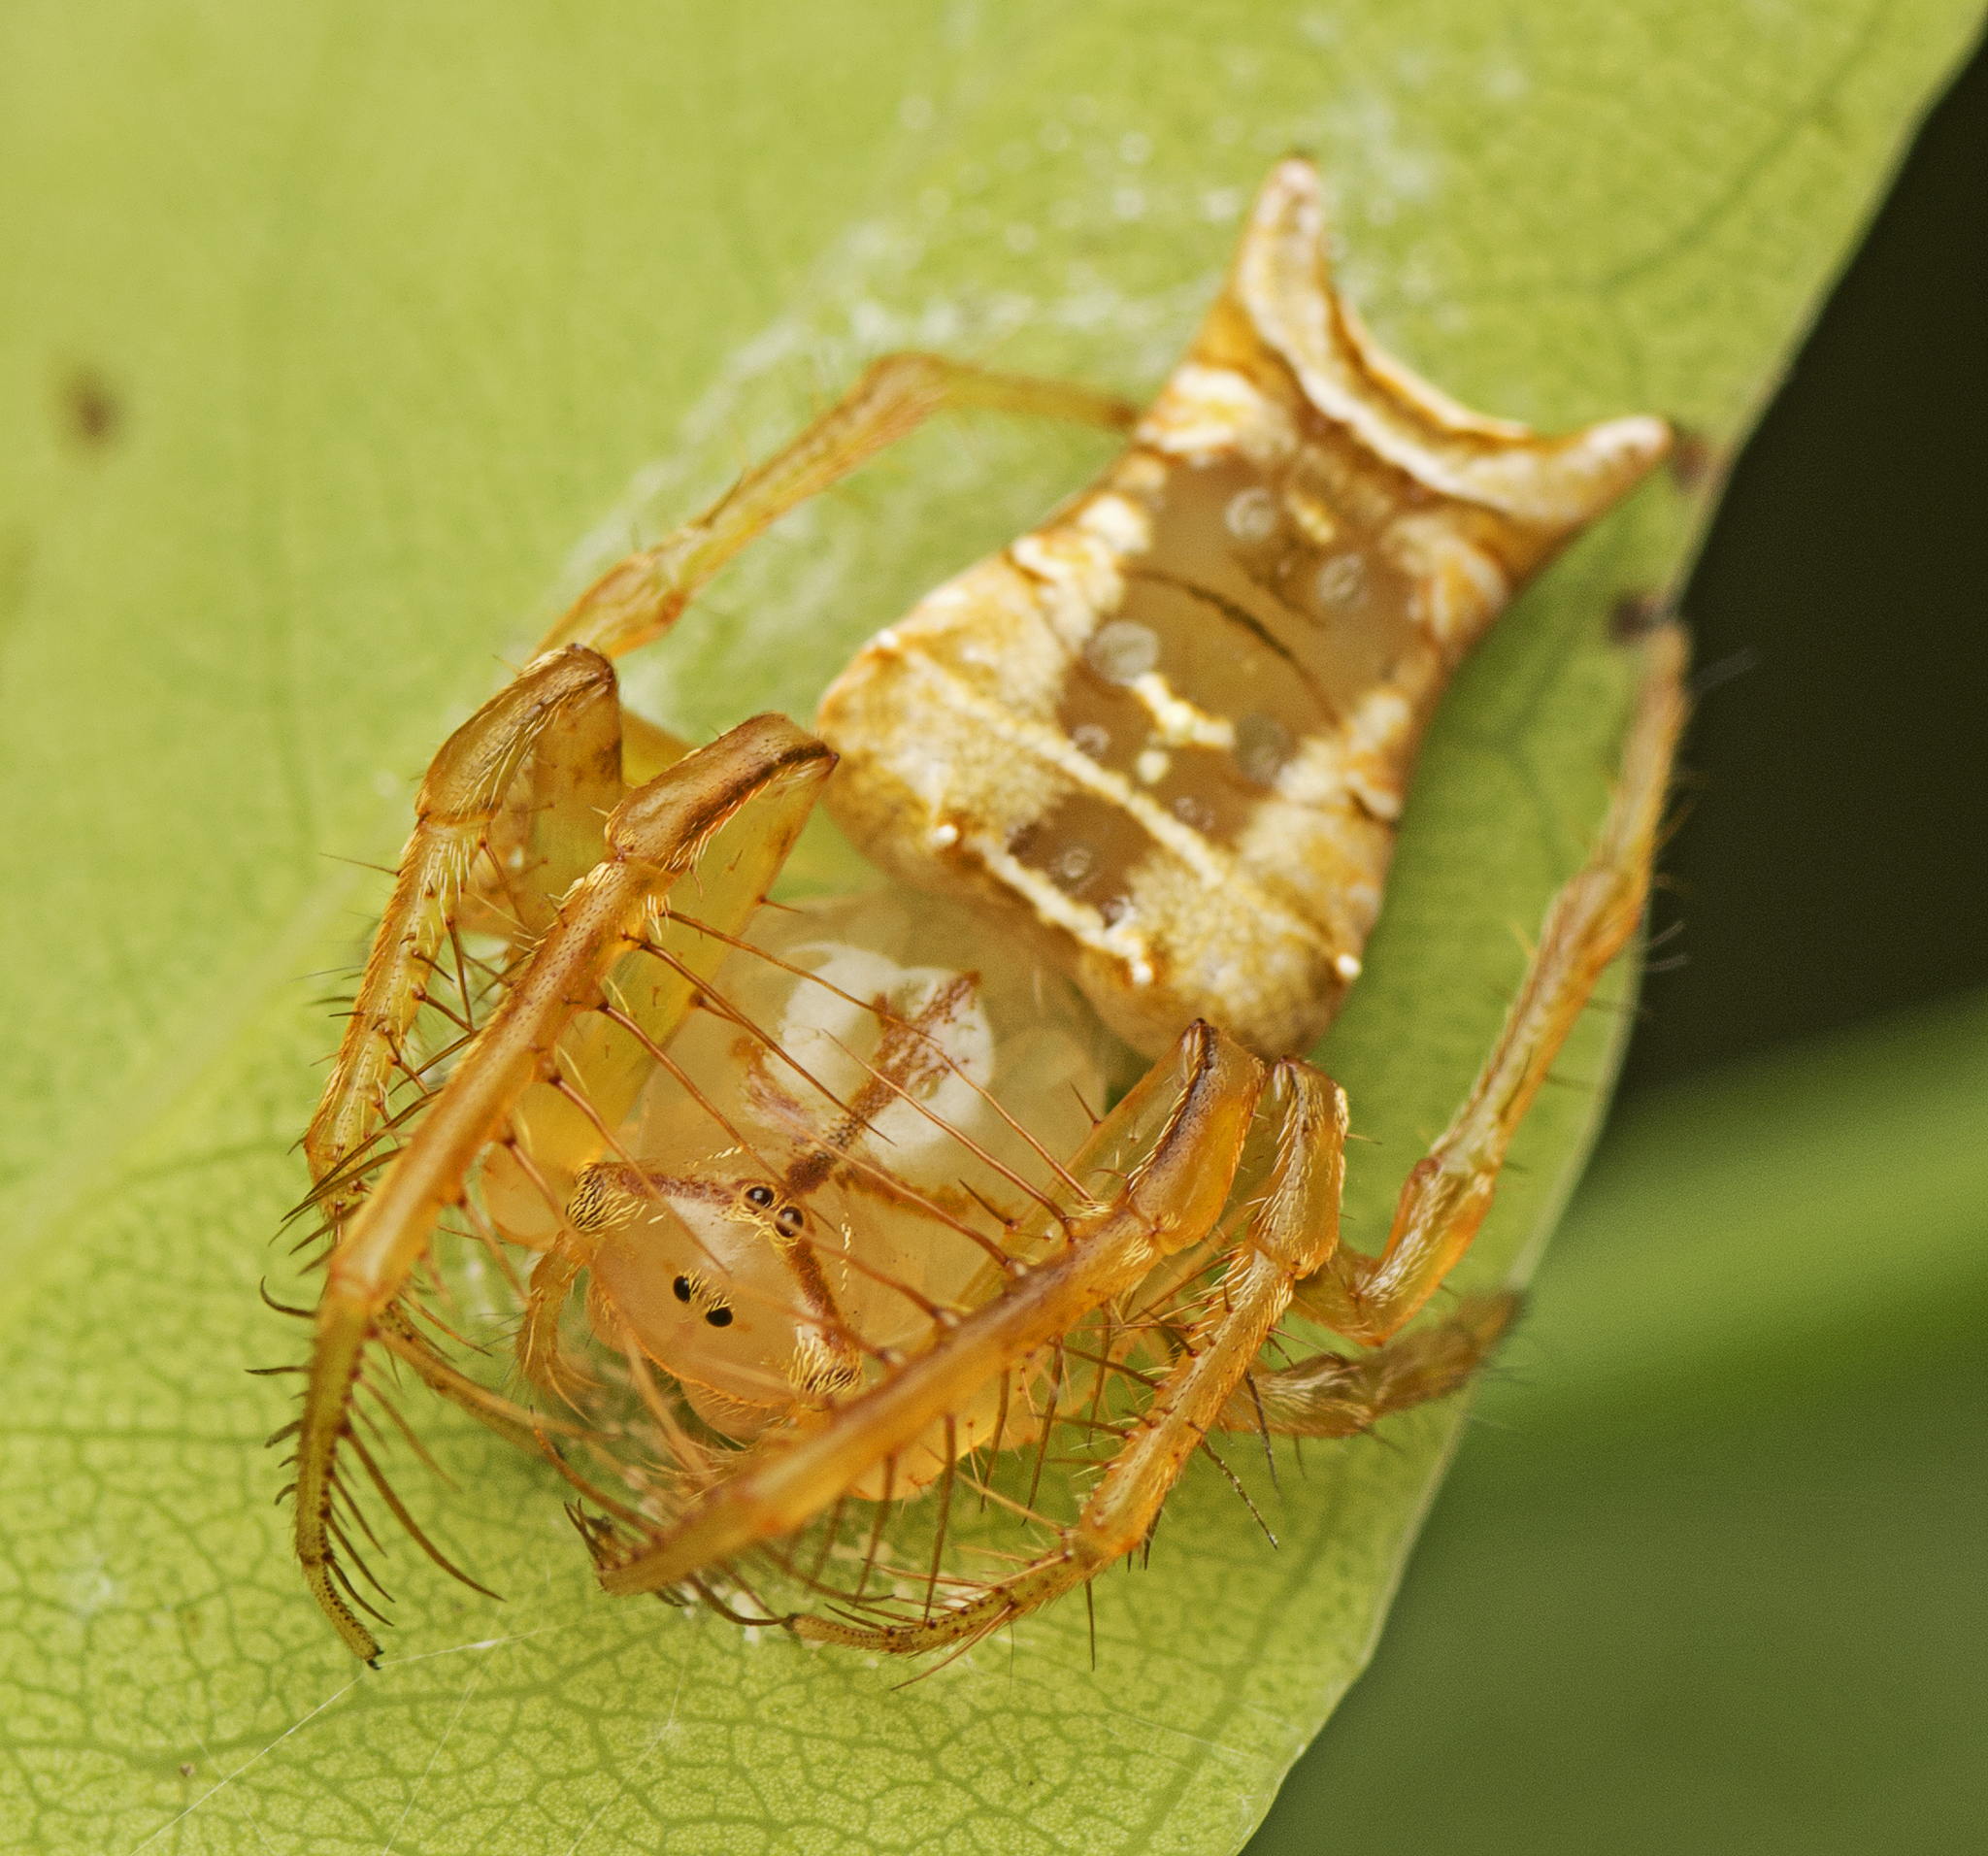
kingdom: Animalia
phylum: Arthropoda
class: Arachnida
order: Araneae
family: Arkyidae
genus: Arkys
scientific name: Arkys furcatus
